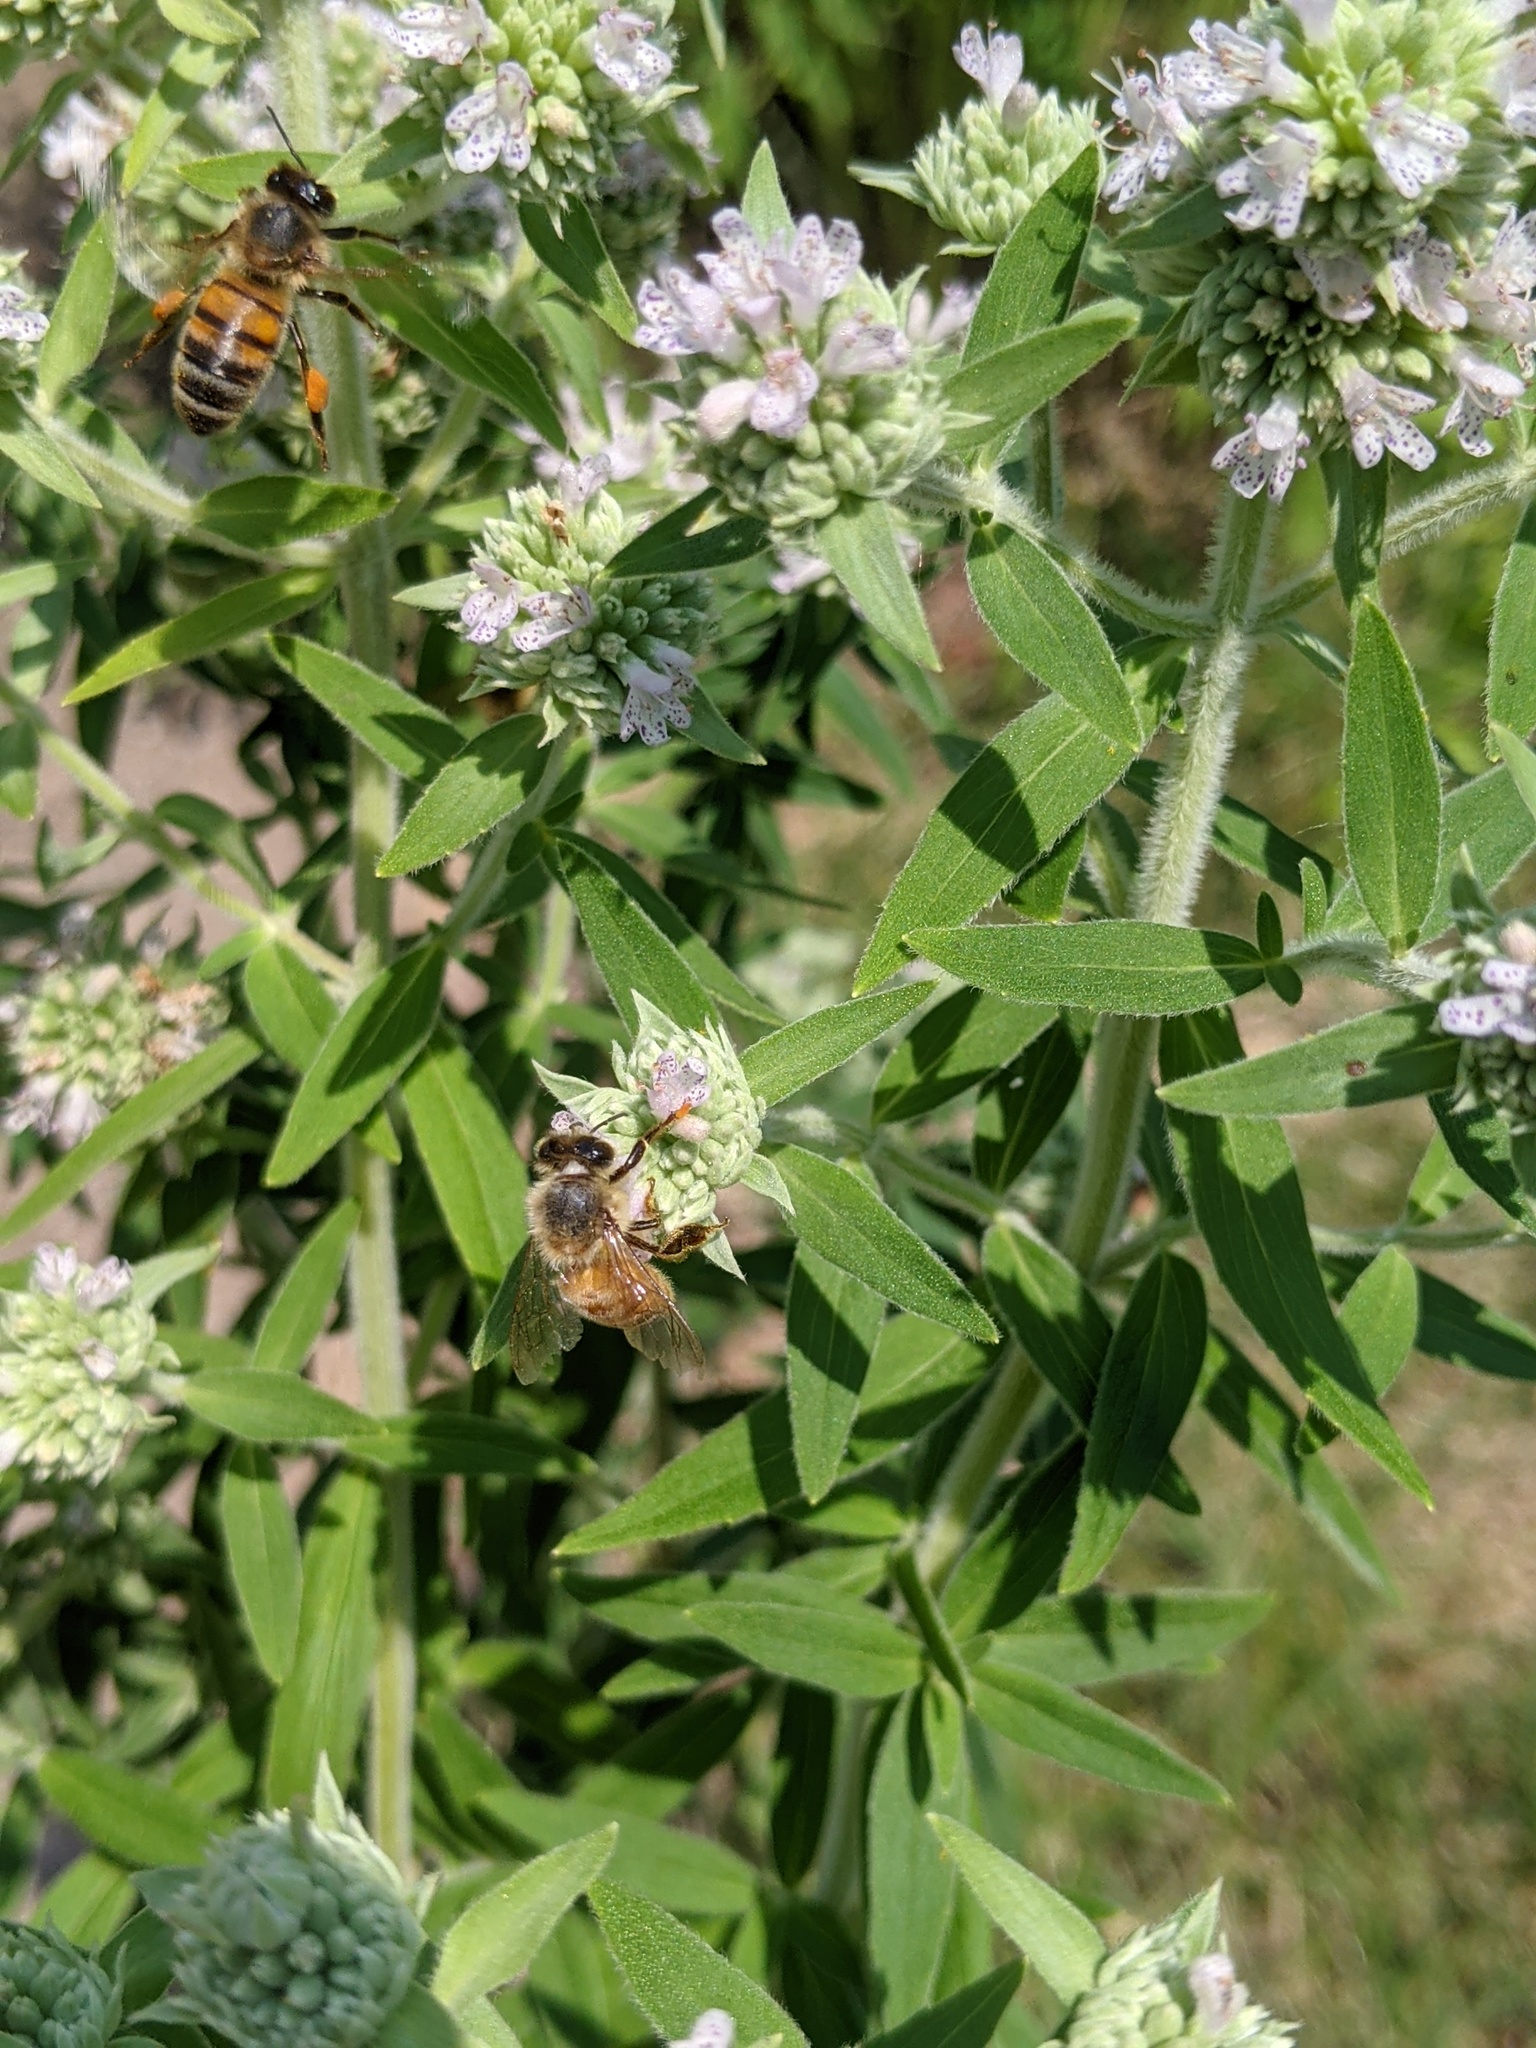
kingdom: Animalia
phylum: Arthropoda
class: Insecta
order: Hymenoptera
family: Apidae
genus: Apis
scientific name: Apis mellifera
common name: Honey bee
